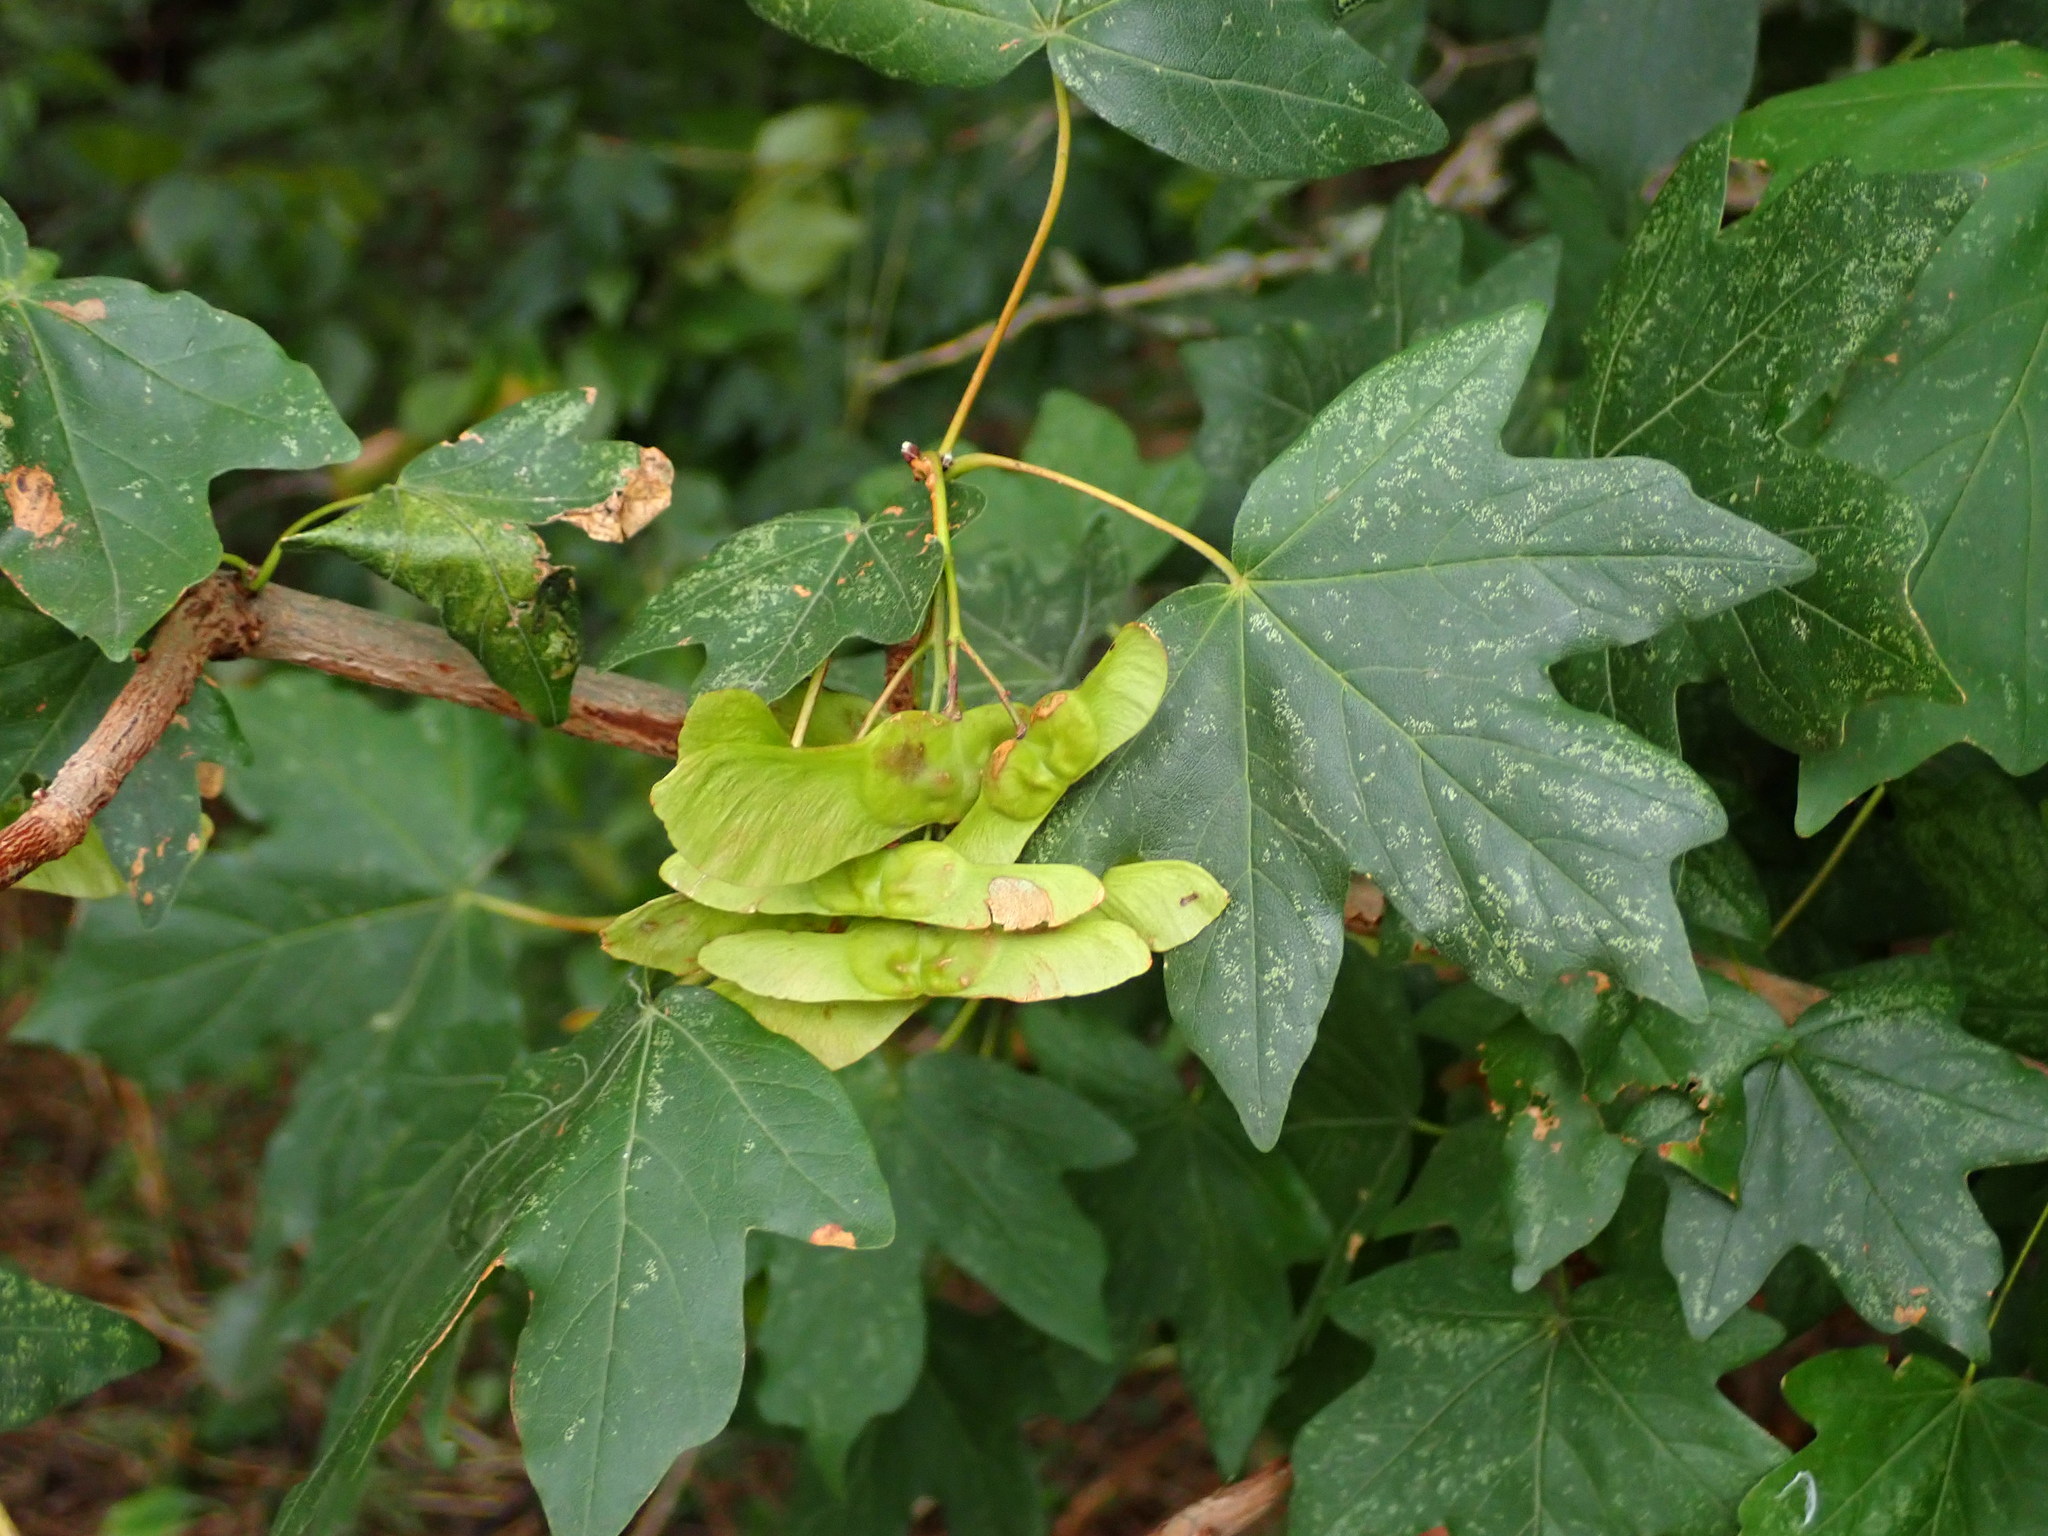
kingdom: Plantae
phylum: Tracheophyta
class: Magnoliopsida
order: Sapindales
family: Sapindaceae
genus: Acer
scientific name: Acer campestre
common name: Field maple
